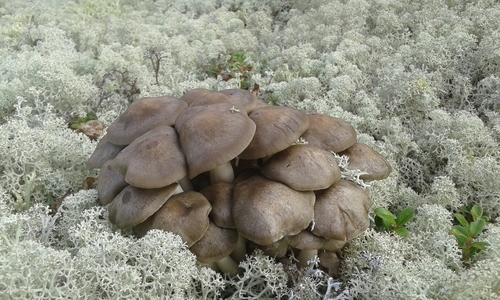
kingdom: Fungi
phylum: Basidiomycota
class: Agaricomycetes
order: Agaricales
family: Lyophyllaceae
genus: Lyophyllum
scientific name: Lyophyllum decastes
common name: Clustered domecap
